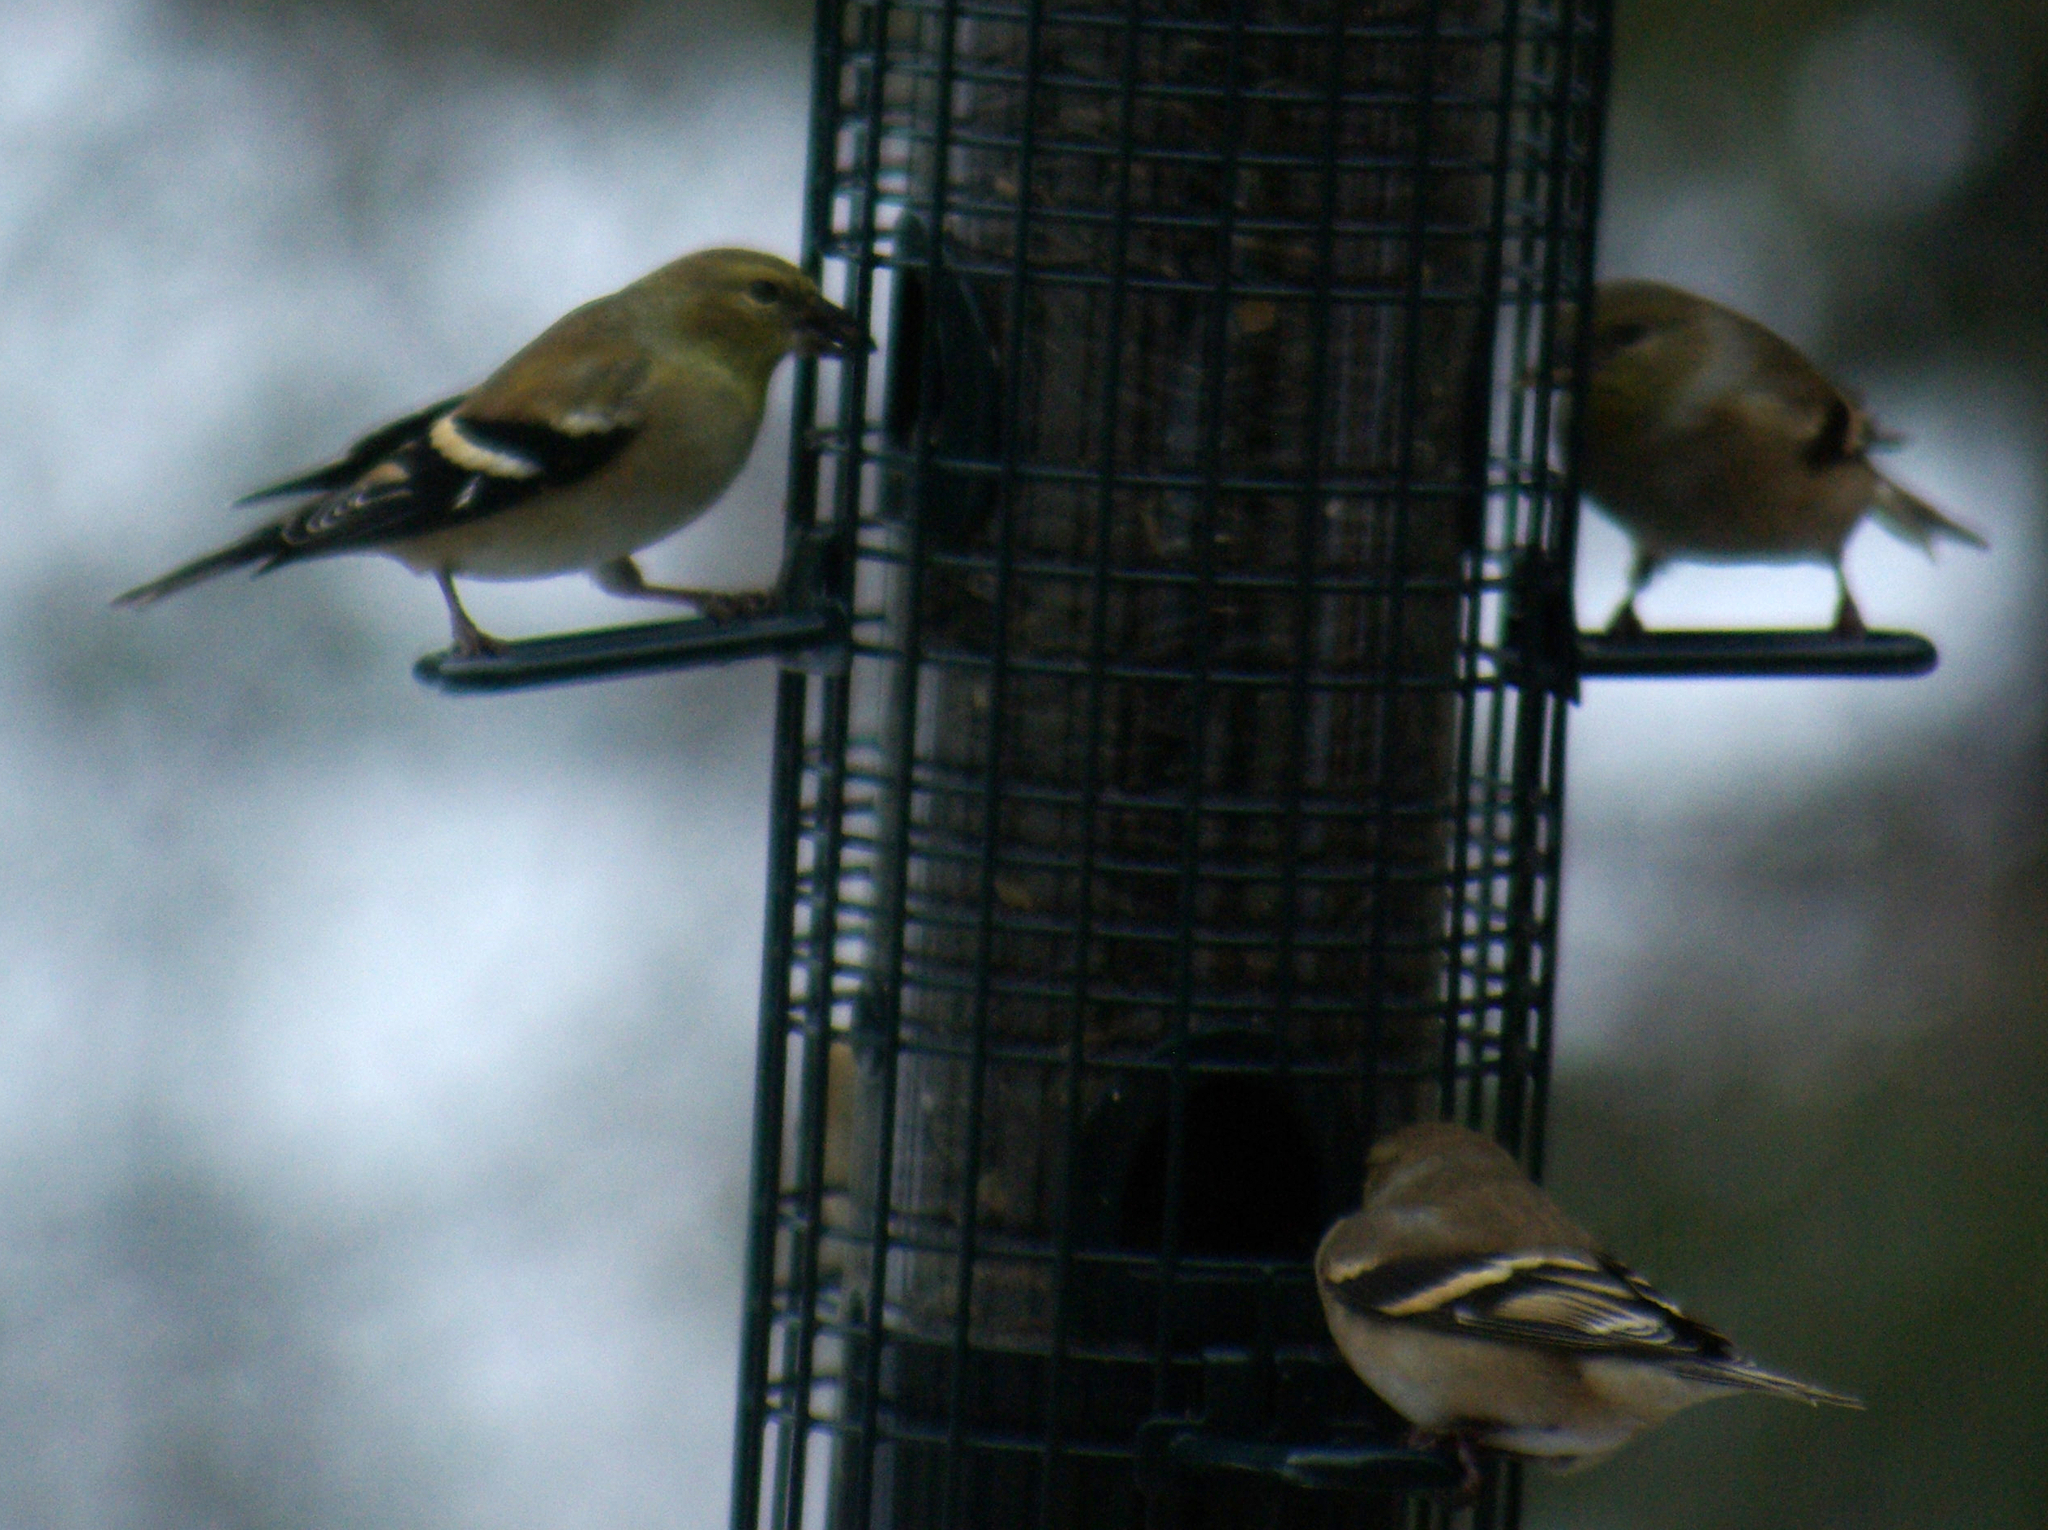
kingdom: Animalia
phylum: Chordata
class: Aves
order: Passeriformes
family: Fringillidae
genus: Spinus
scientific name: Spinus tristis
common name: American goldfinch
